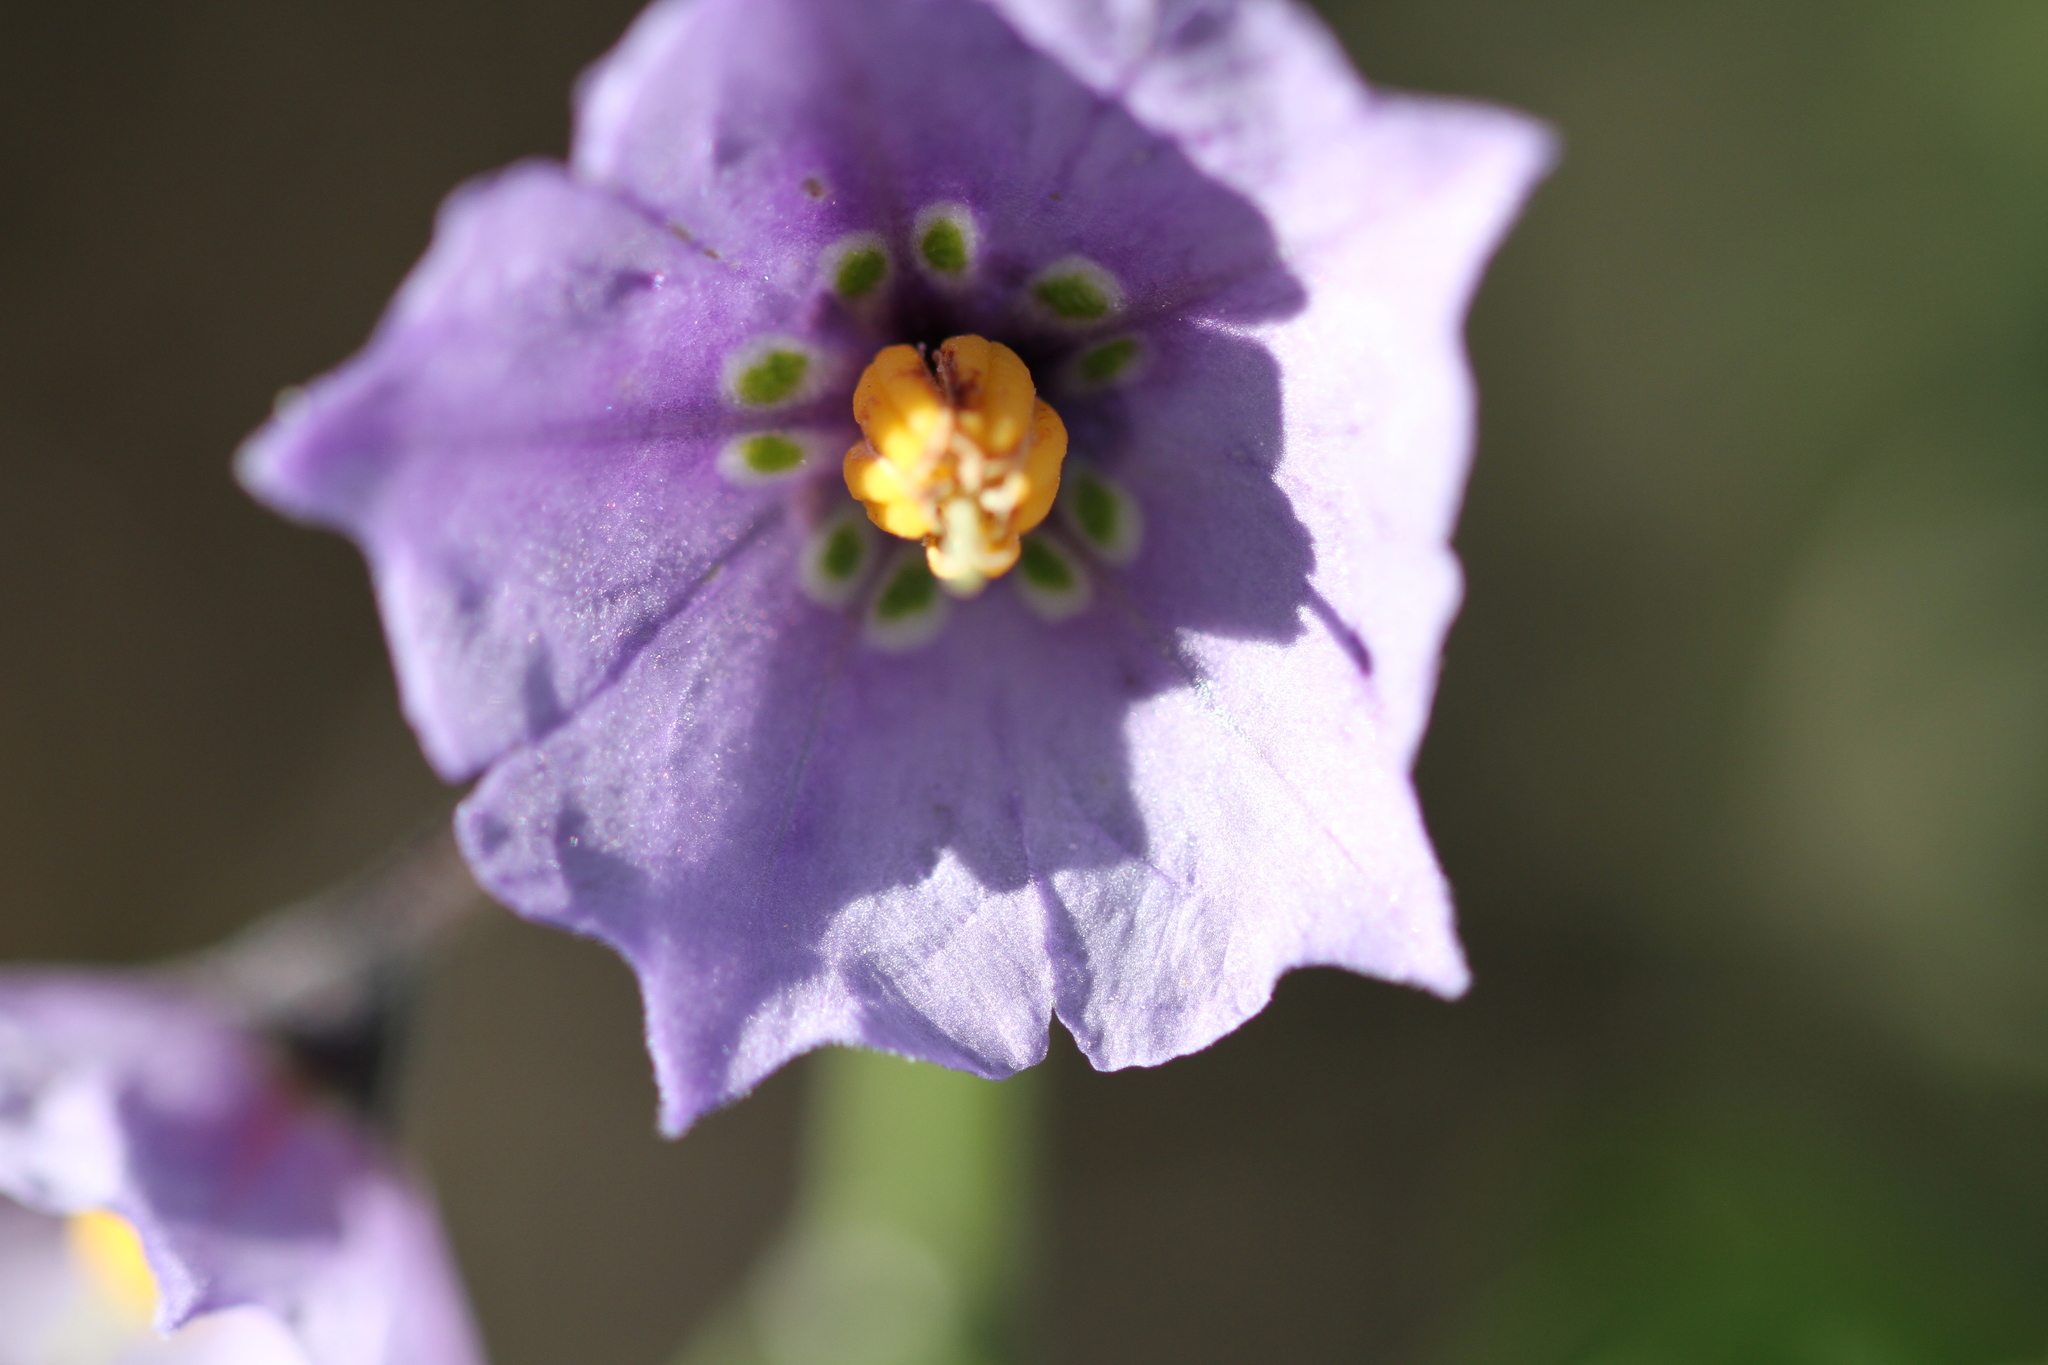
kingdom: Plantae
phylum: Tracheophyta
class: Magnoliopsida
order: Solanales
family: Solanaceae
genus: Solanum
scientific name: Solanum umbelliferum
